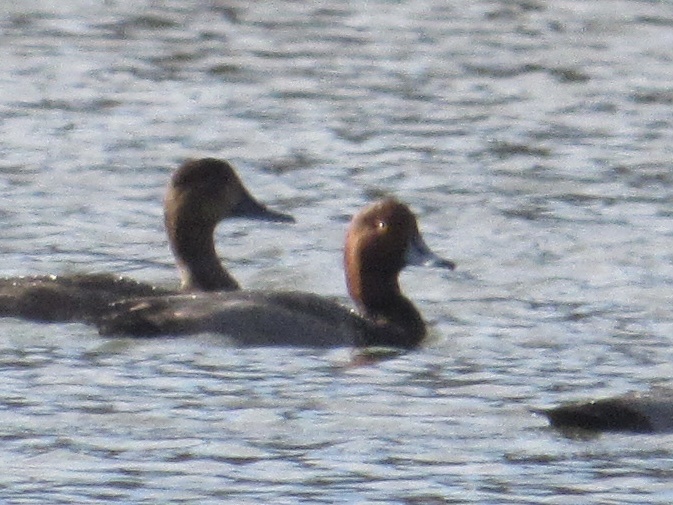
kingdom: Animalia
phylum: Chordata
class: Aves
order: Anseriformes
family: Anatidae
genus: Aythya
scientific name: Aythya americana
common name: Redhead
